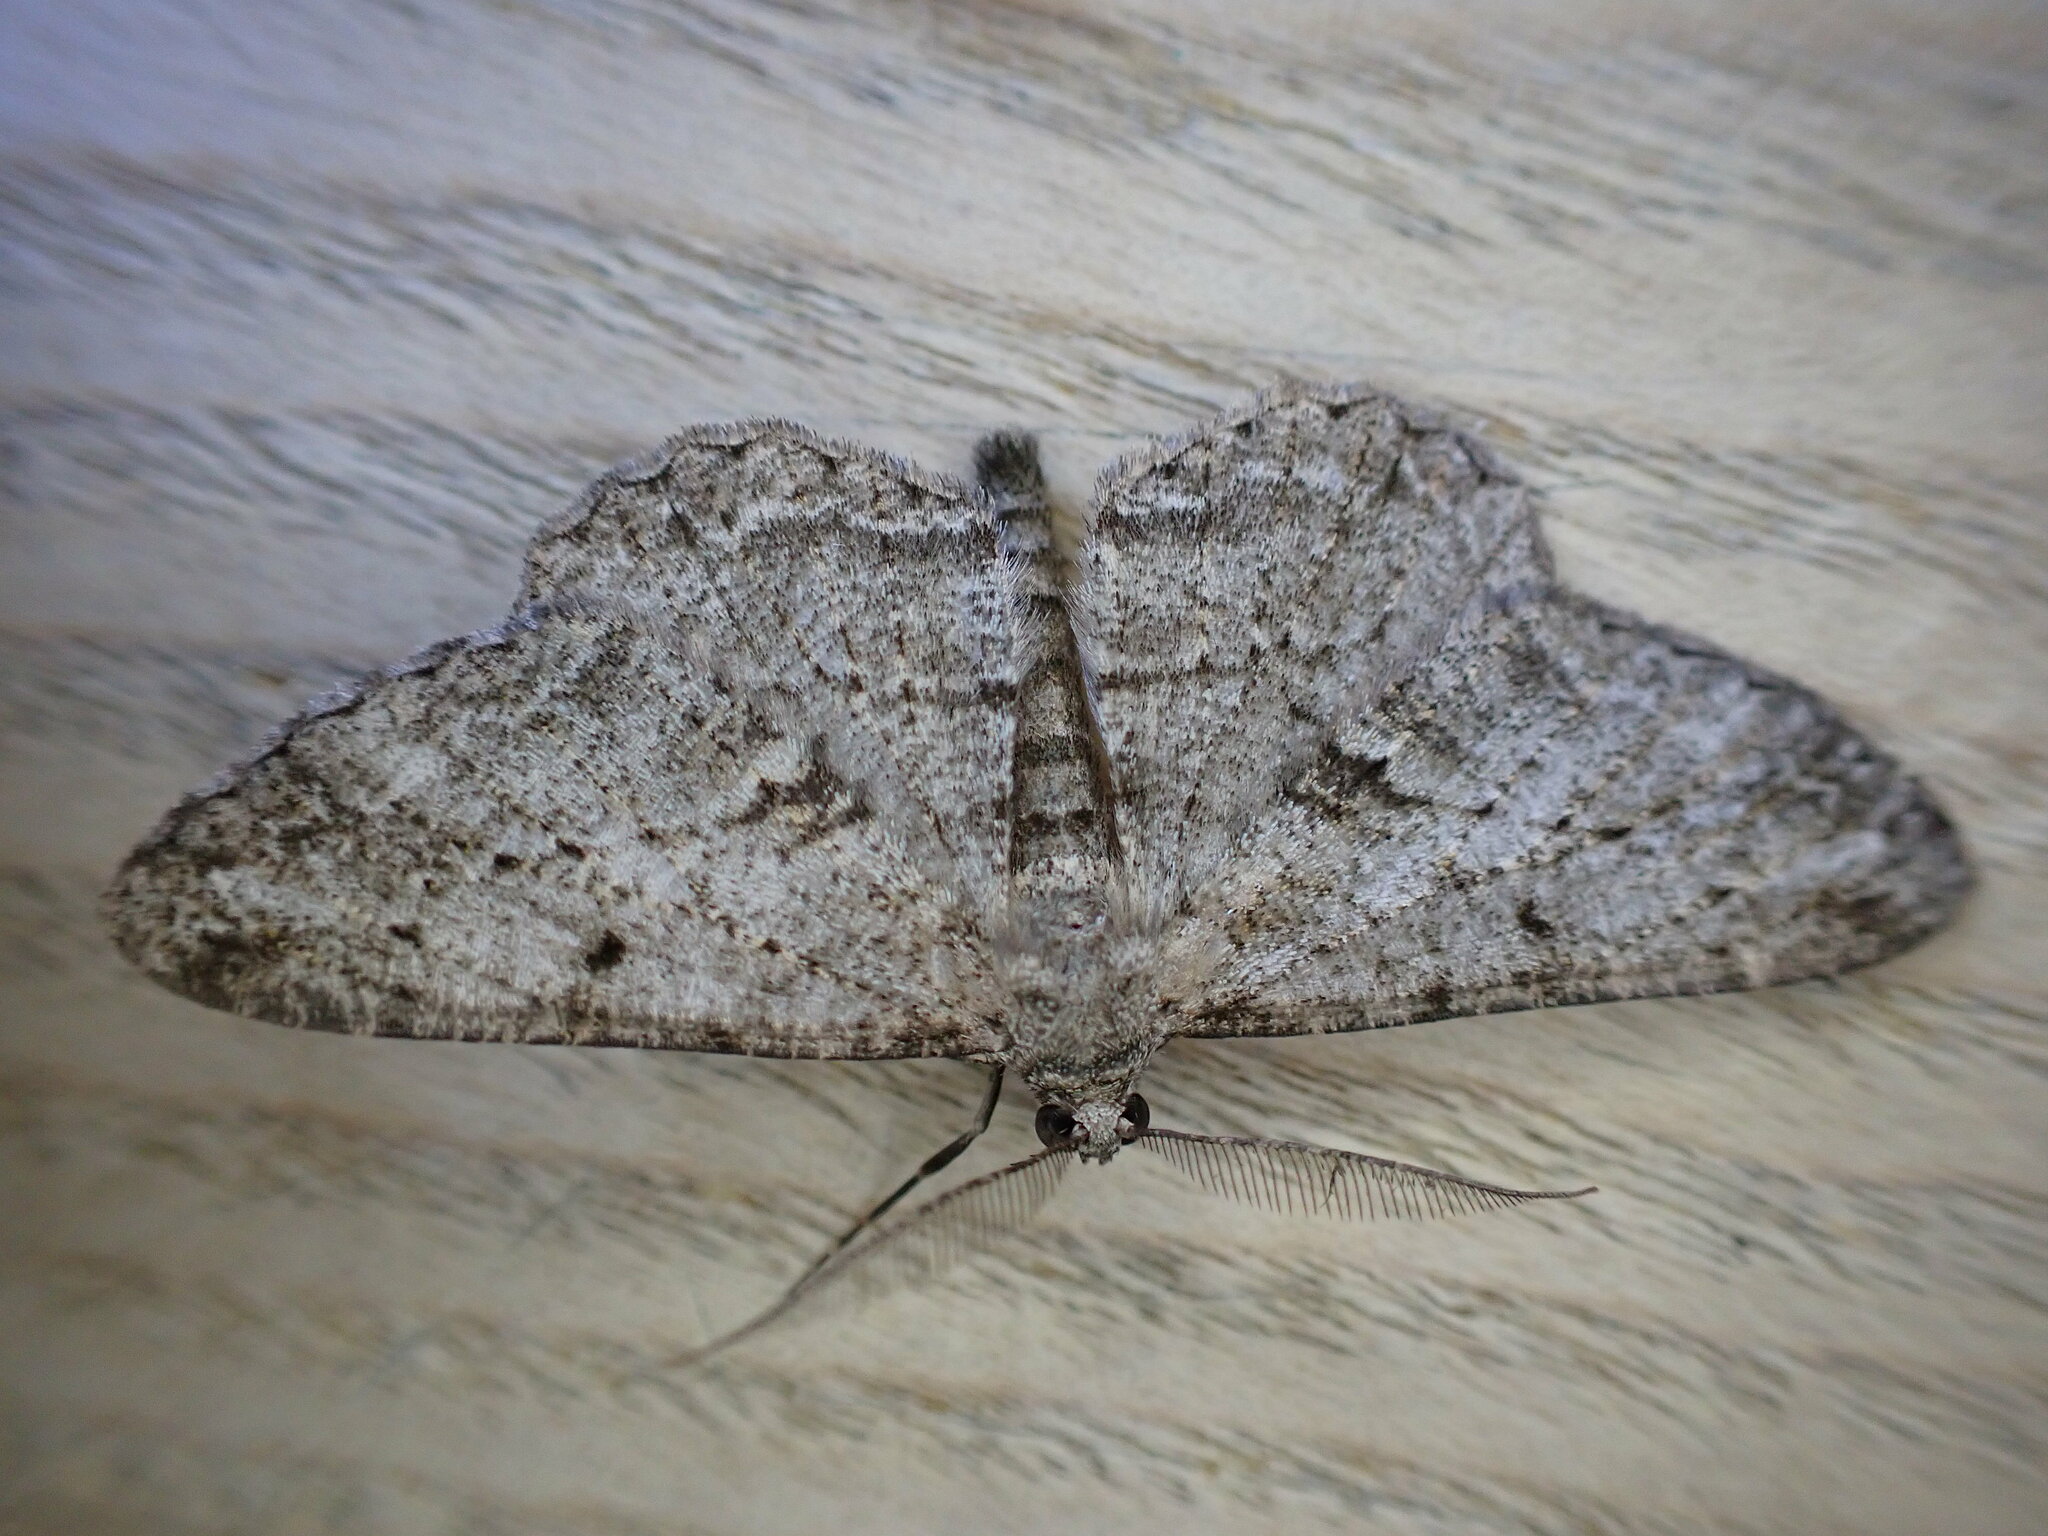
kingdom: Animalia
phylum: Arthropoda
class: Insecta
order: Lepidoptera
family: Geometridae
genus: Peribatodes
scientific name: Peribatodes rhomboidaria
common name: Willow beauty
